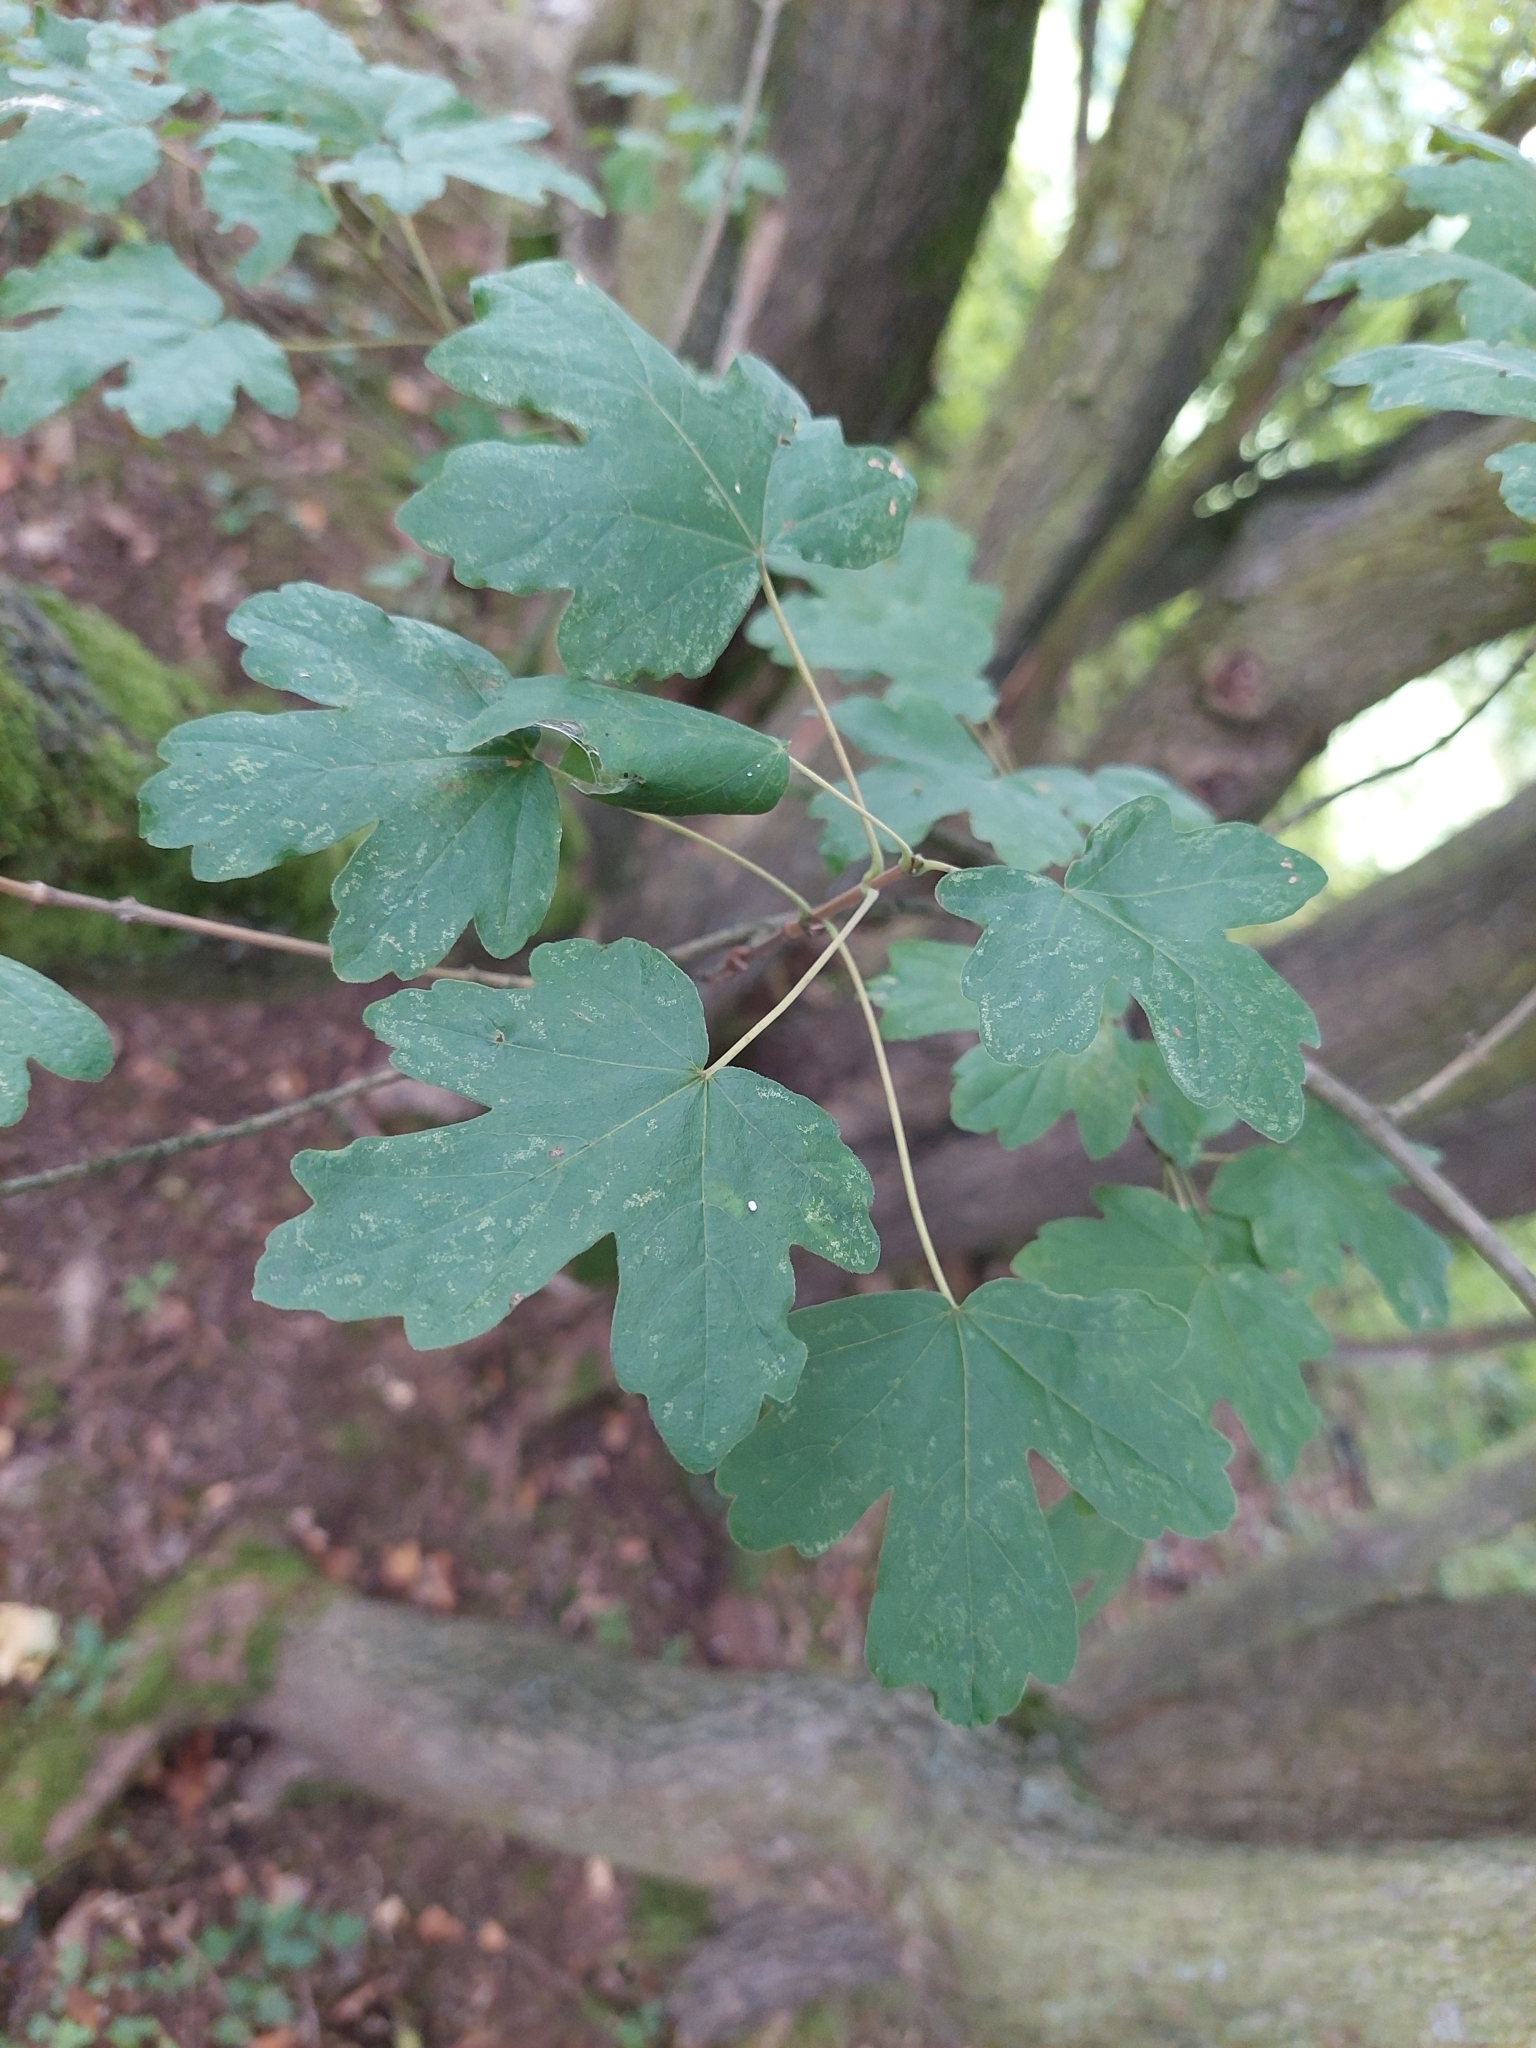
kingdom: Plantae
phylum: Tracheophyta
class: Magnoliopsida
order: Sapindales
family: Sapindaceae
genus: Acer
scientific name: Acer campestre
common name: Field maple
